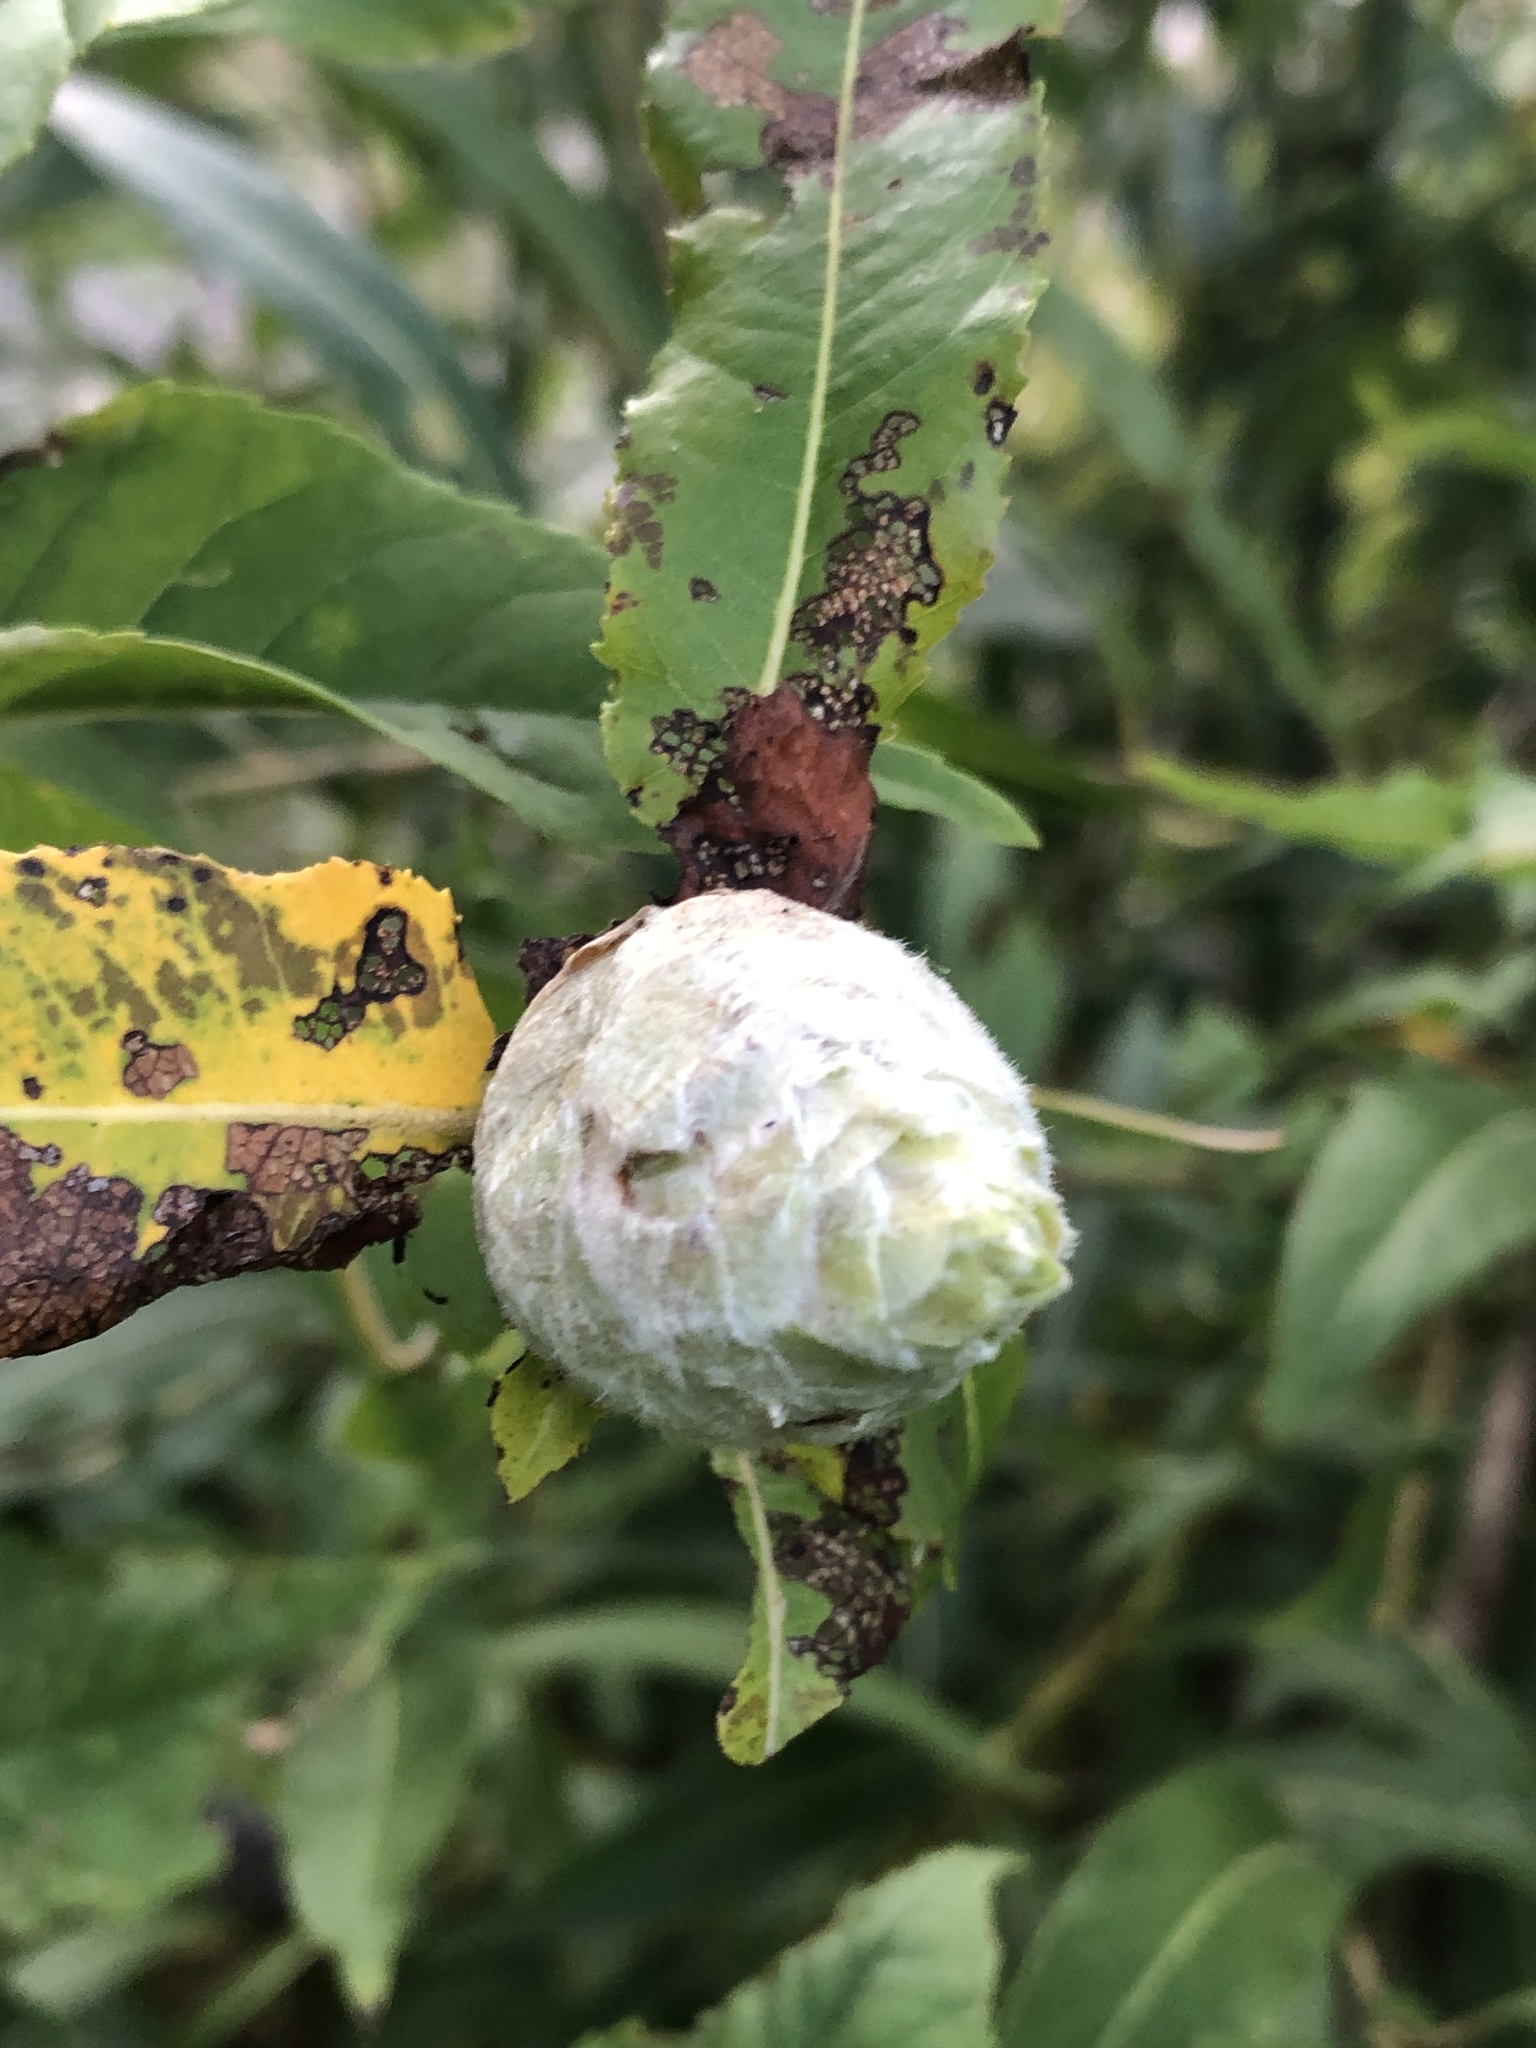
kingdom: Animalia
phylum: Arthropoda
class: Insecta
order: Diptera
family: Cecidomyiidae
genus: Rabdophaga
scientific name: Rabdophaga strobiloides
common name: Willow pinecone gall midge
